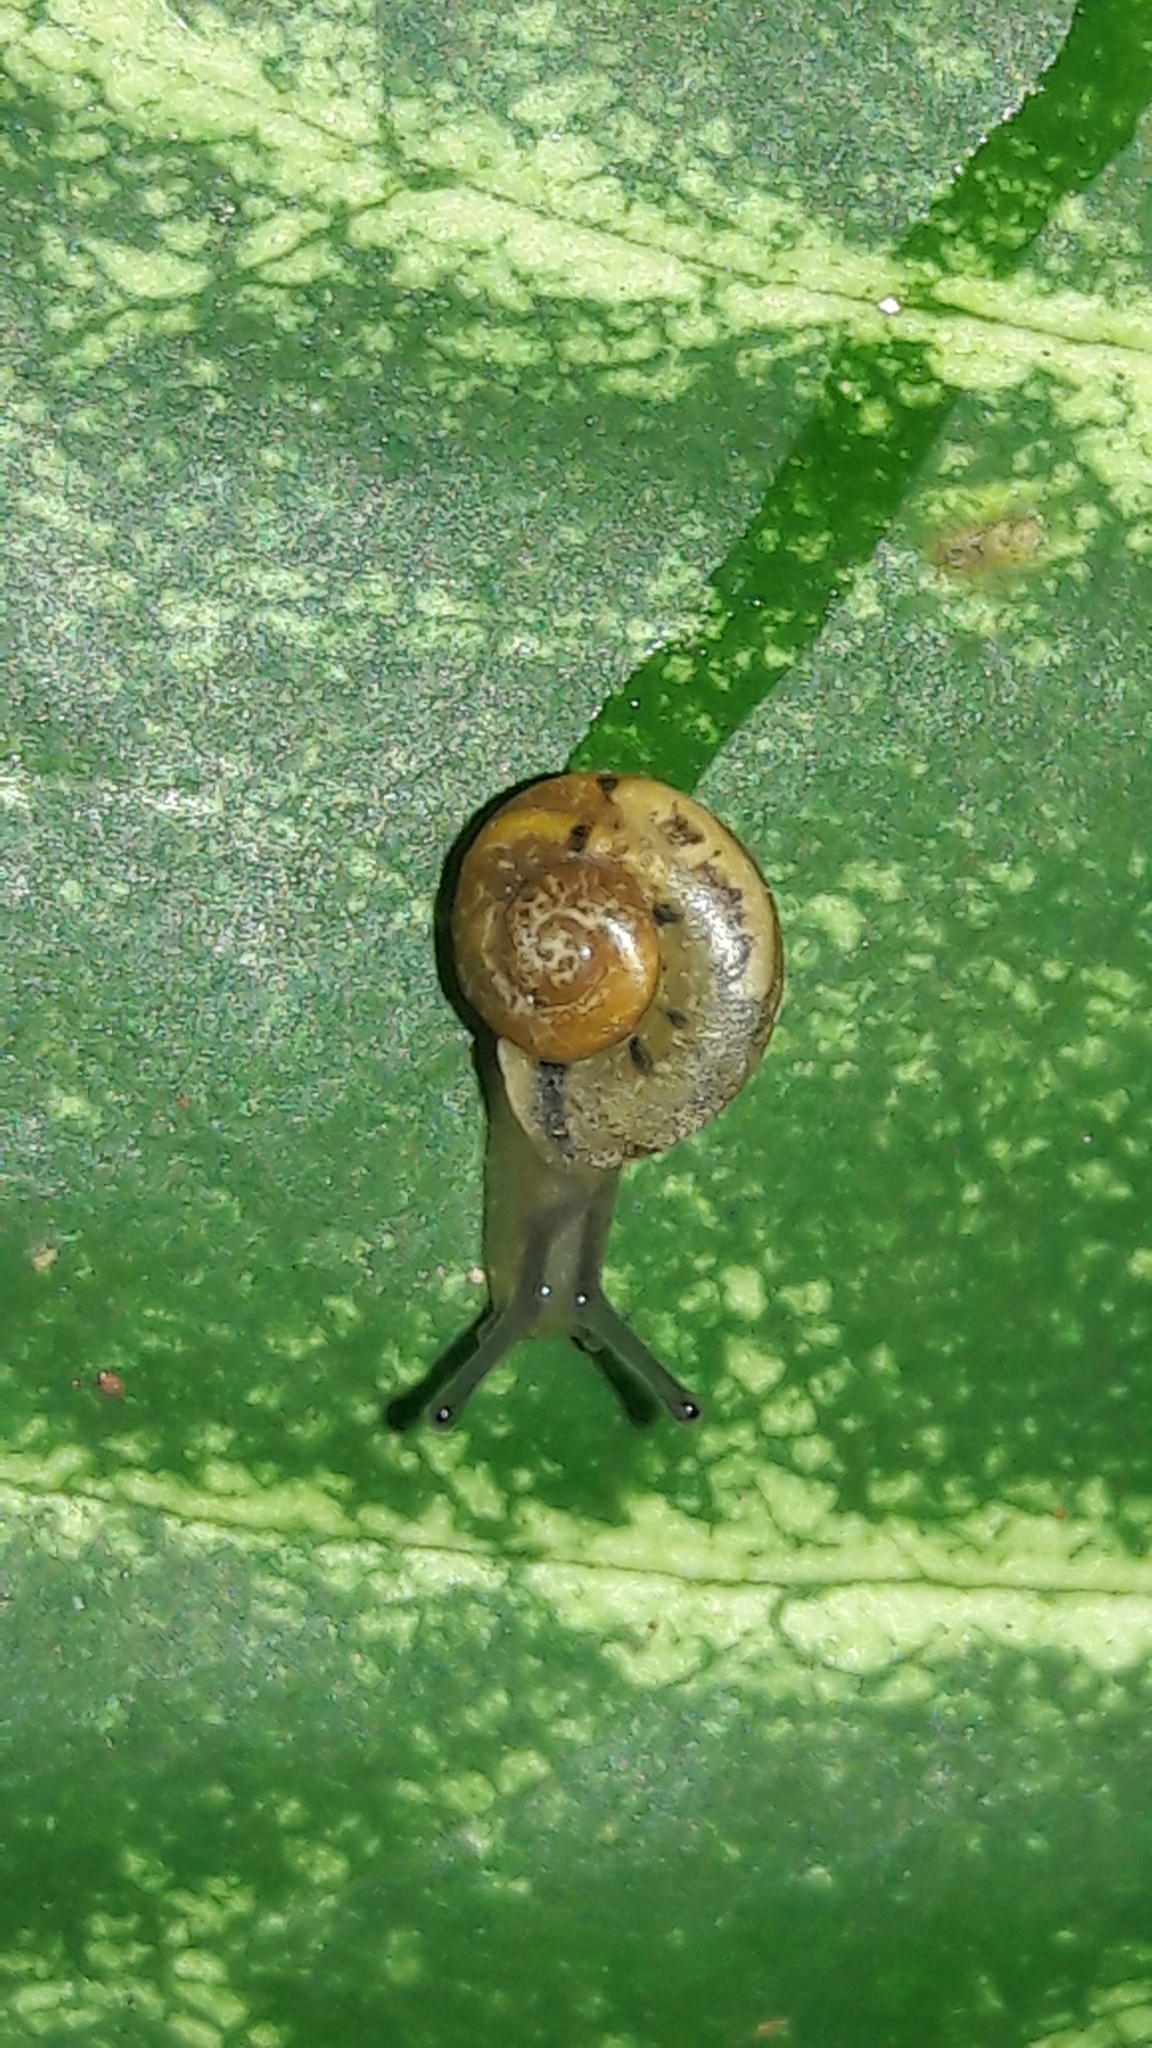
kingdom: Animalia
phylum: Mollusca
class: Gastropoda
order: Stylommatophora
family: Camaenidae
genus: Bradybaena
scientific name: Bradybaena similaris
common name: Asian trampsnail
